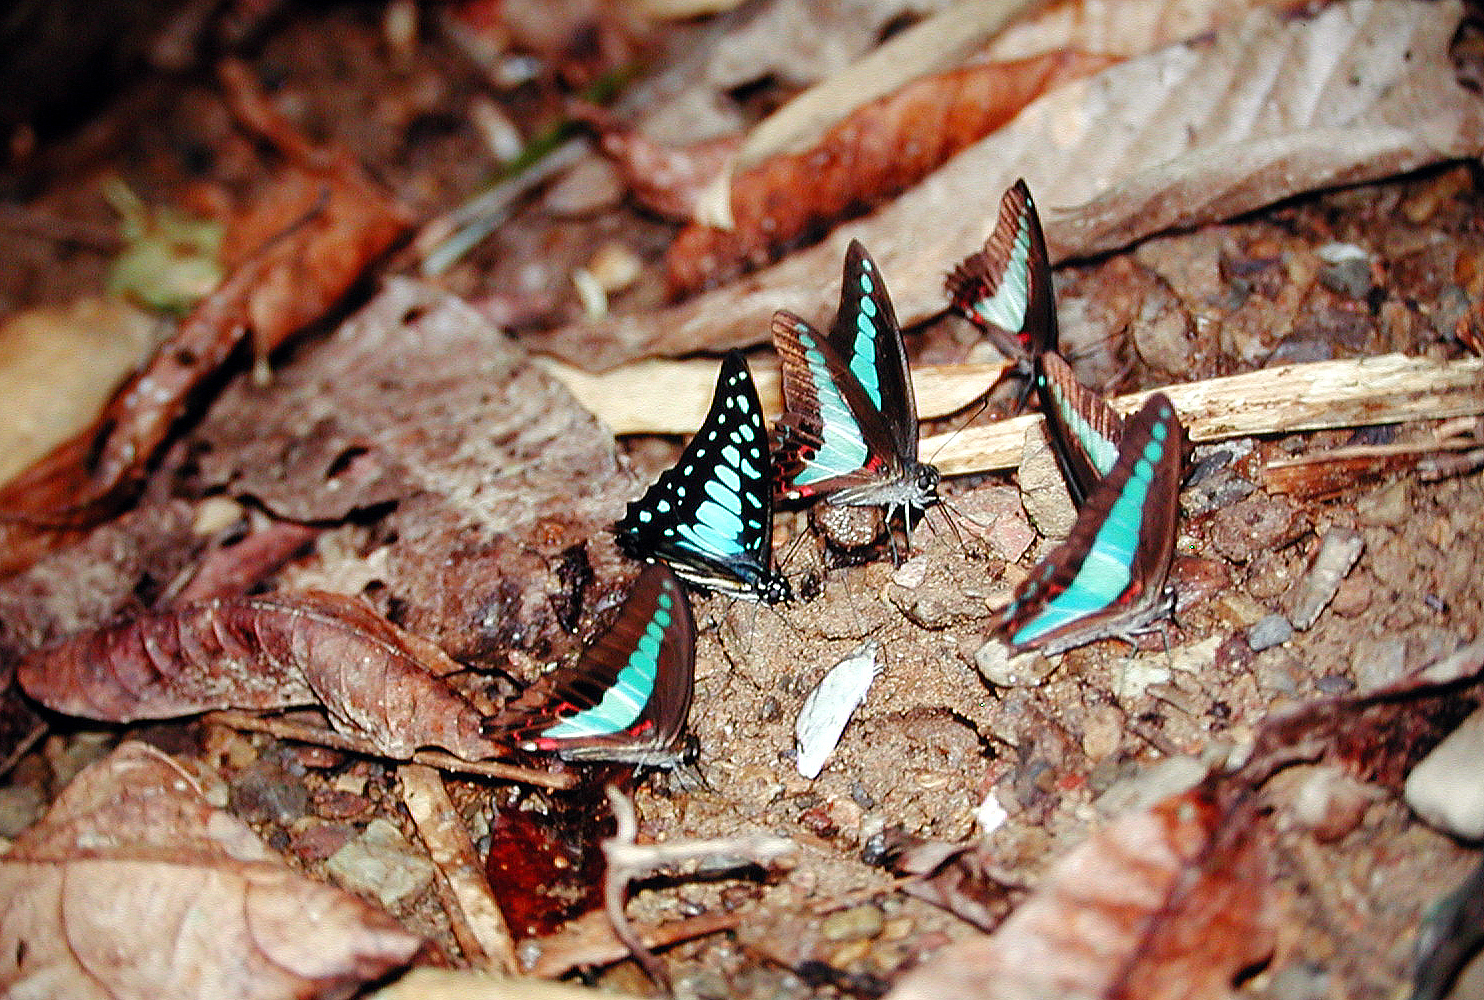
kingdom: Fungi
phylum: Ascomycota
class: Sordariomycetes
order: Microascales
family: Microascaceae
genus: Graphium
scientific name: Graphium sarpedon
